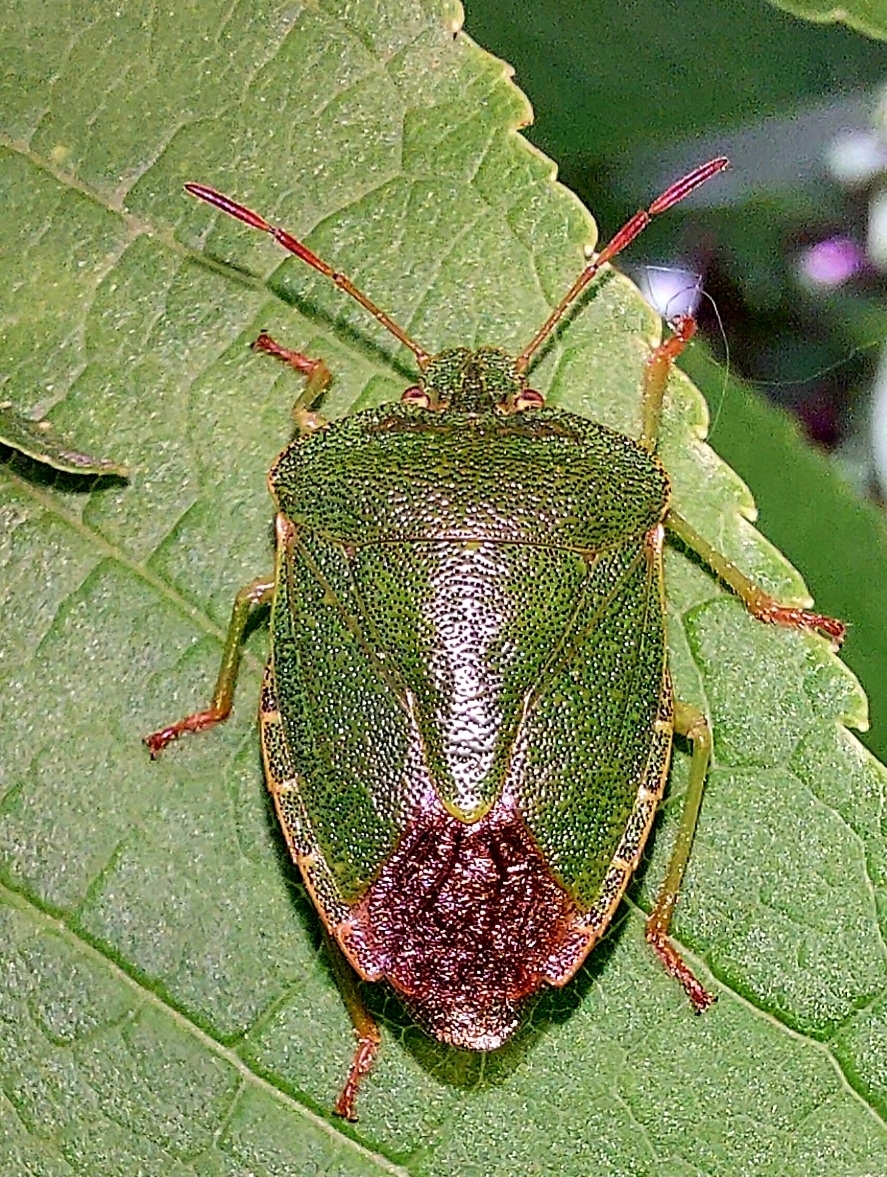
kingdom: Animalia
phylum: Arthropoda
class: Insecta
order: Hemiptera
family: Pentatomidae
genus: Palomena
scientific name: Palomena prasina
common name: Green shieldbug
